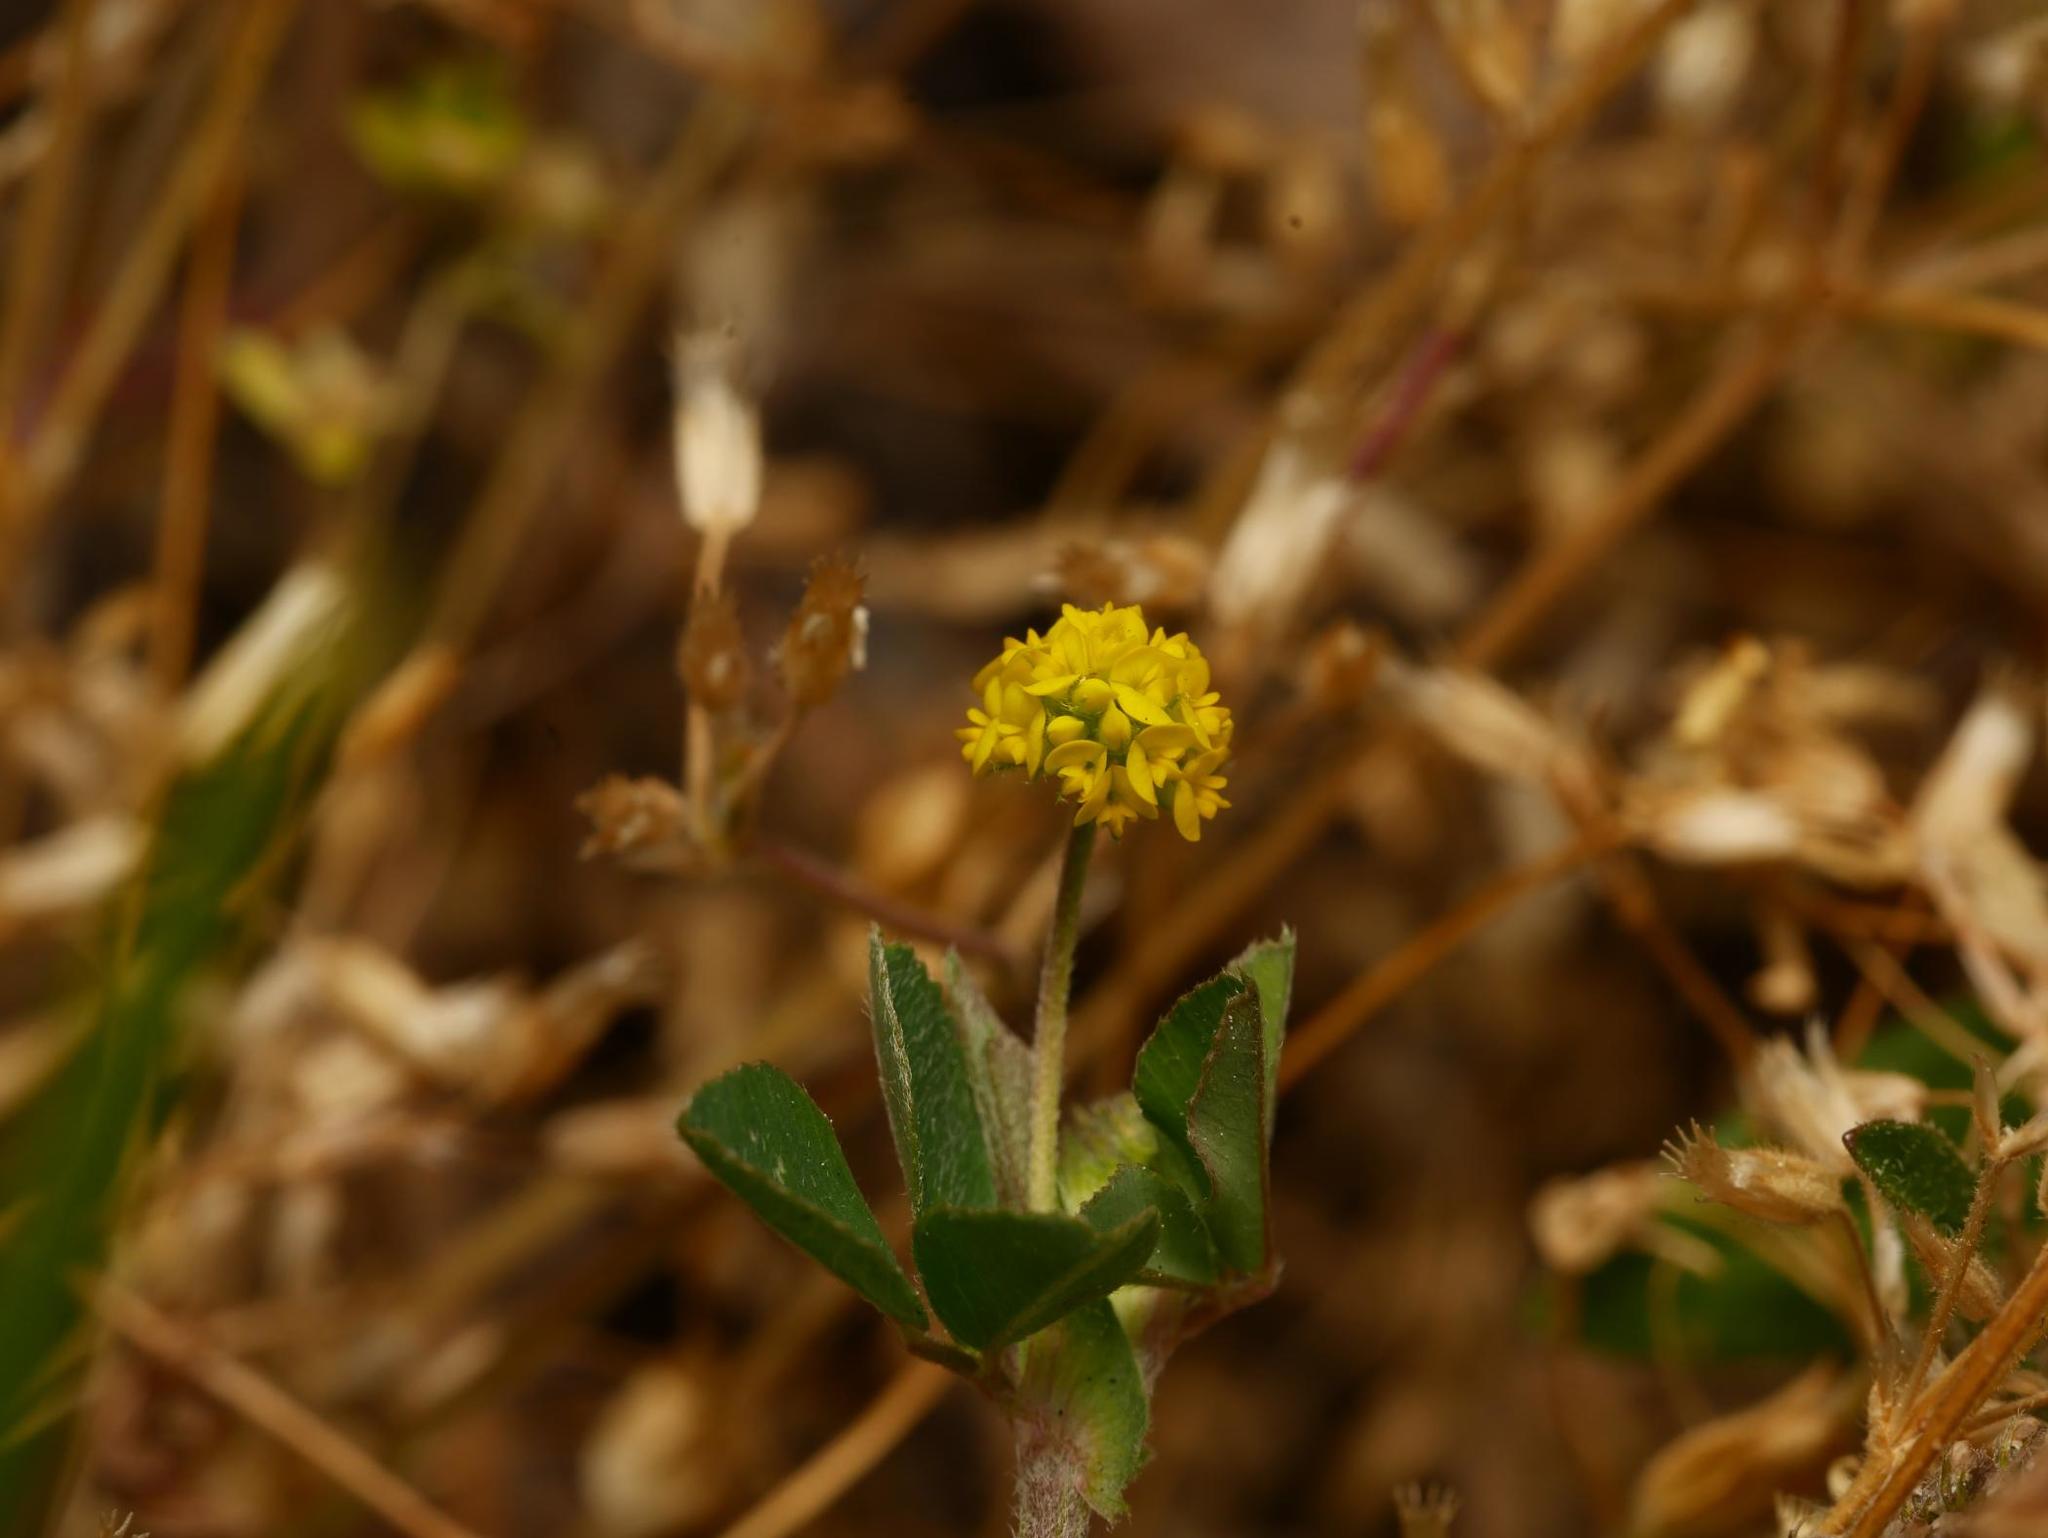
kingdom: Plantae
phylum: Tracheophyta
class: Magnoliopsida
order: Fabales
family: Fabaceae
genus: Medicago
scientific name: Medicago lupulina
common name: Black medick
